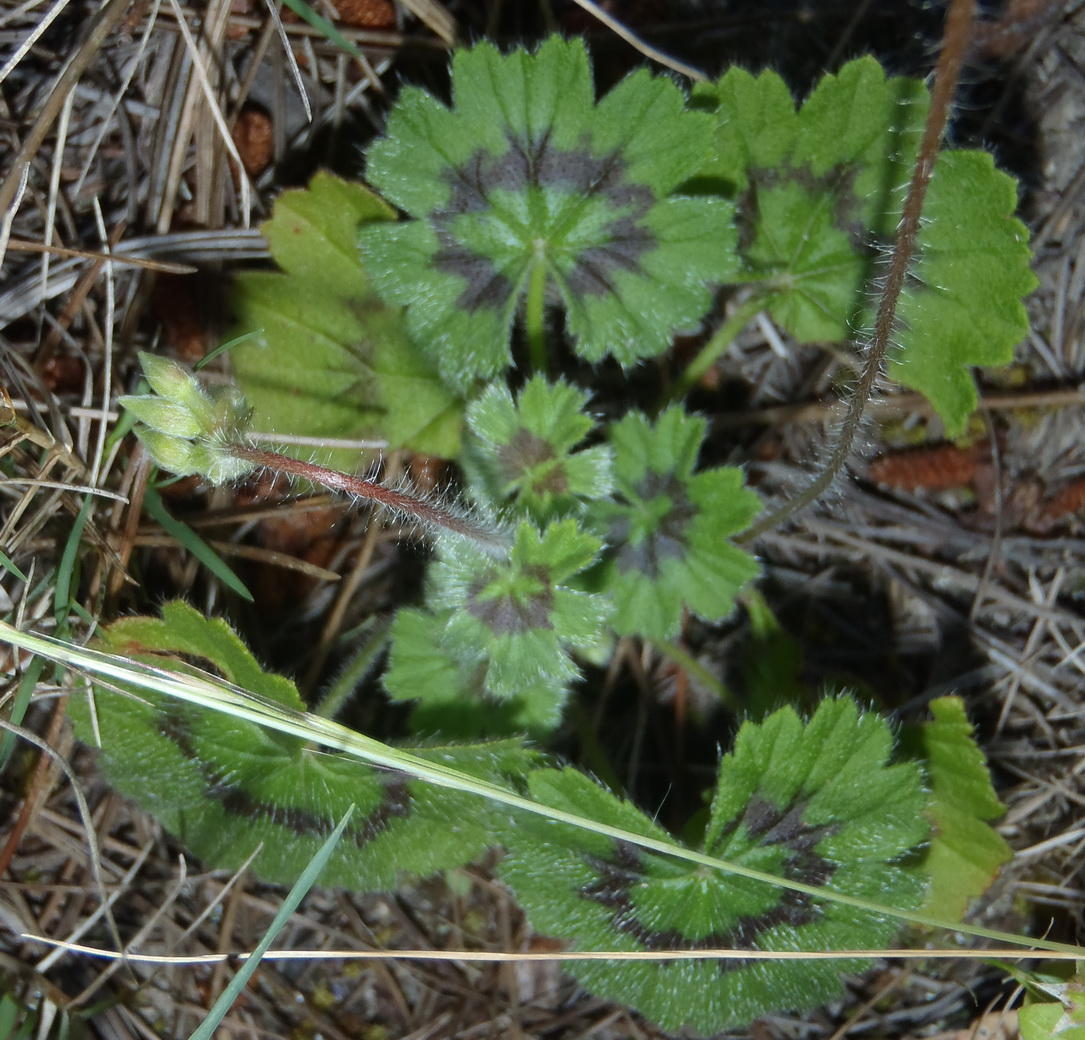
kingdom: Plantae
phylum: Tracheophyta
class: Magnoliopsida
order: Geraniales
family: Geraniaceae
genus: Pelargonium
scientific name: Pelargonium alchemilloides
